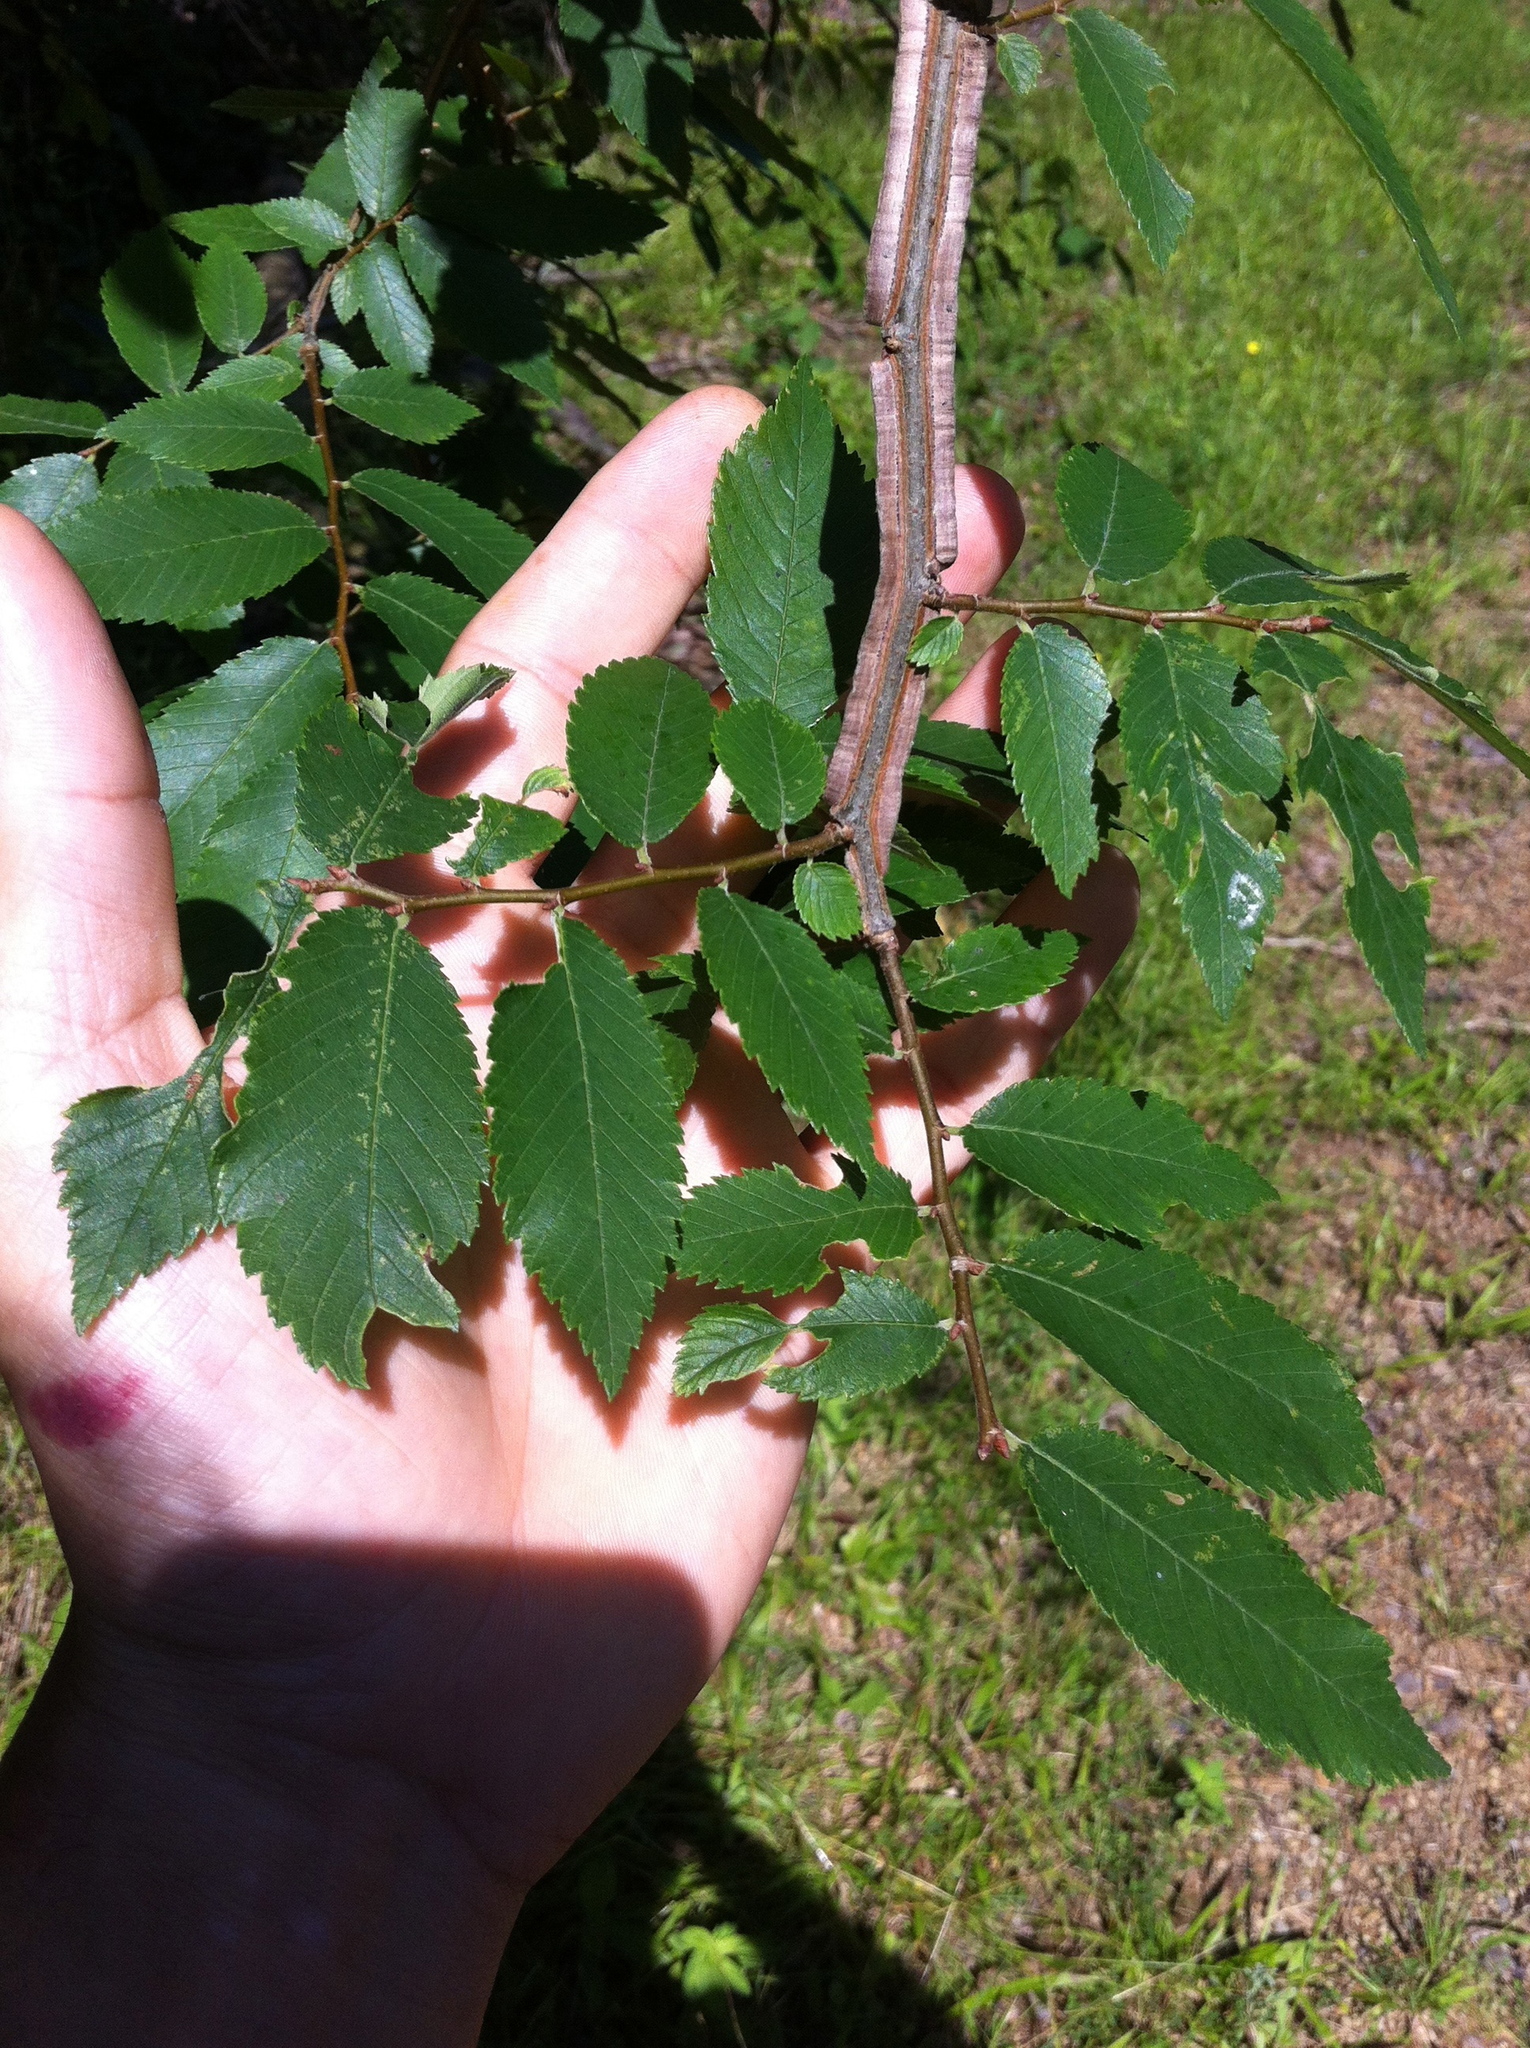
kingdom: Plantae
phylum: Tracheophyta
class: Magnoliopsida
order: Rosales
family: Ulmaceae
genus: Ulmus
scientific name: Ulmus alata
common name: Winged elm
